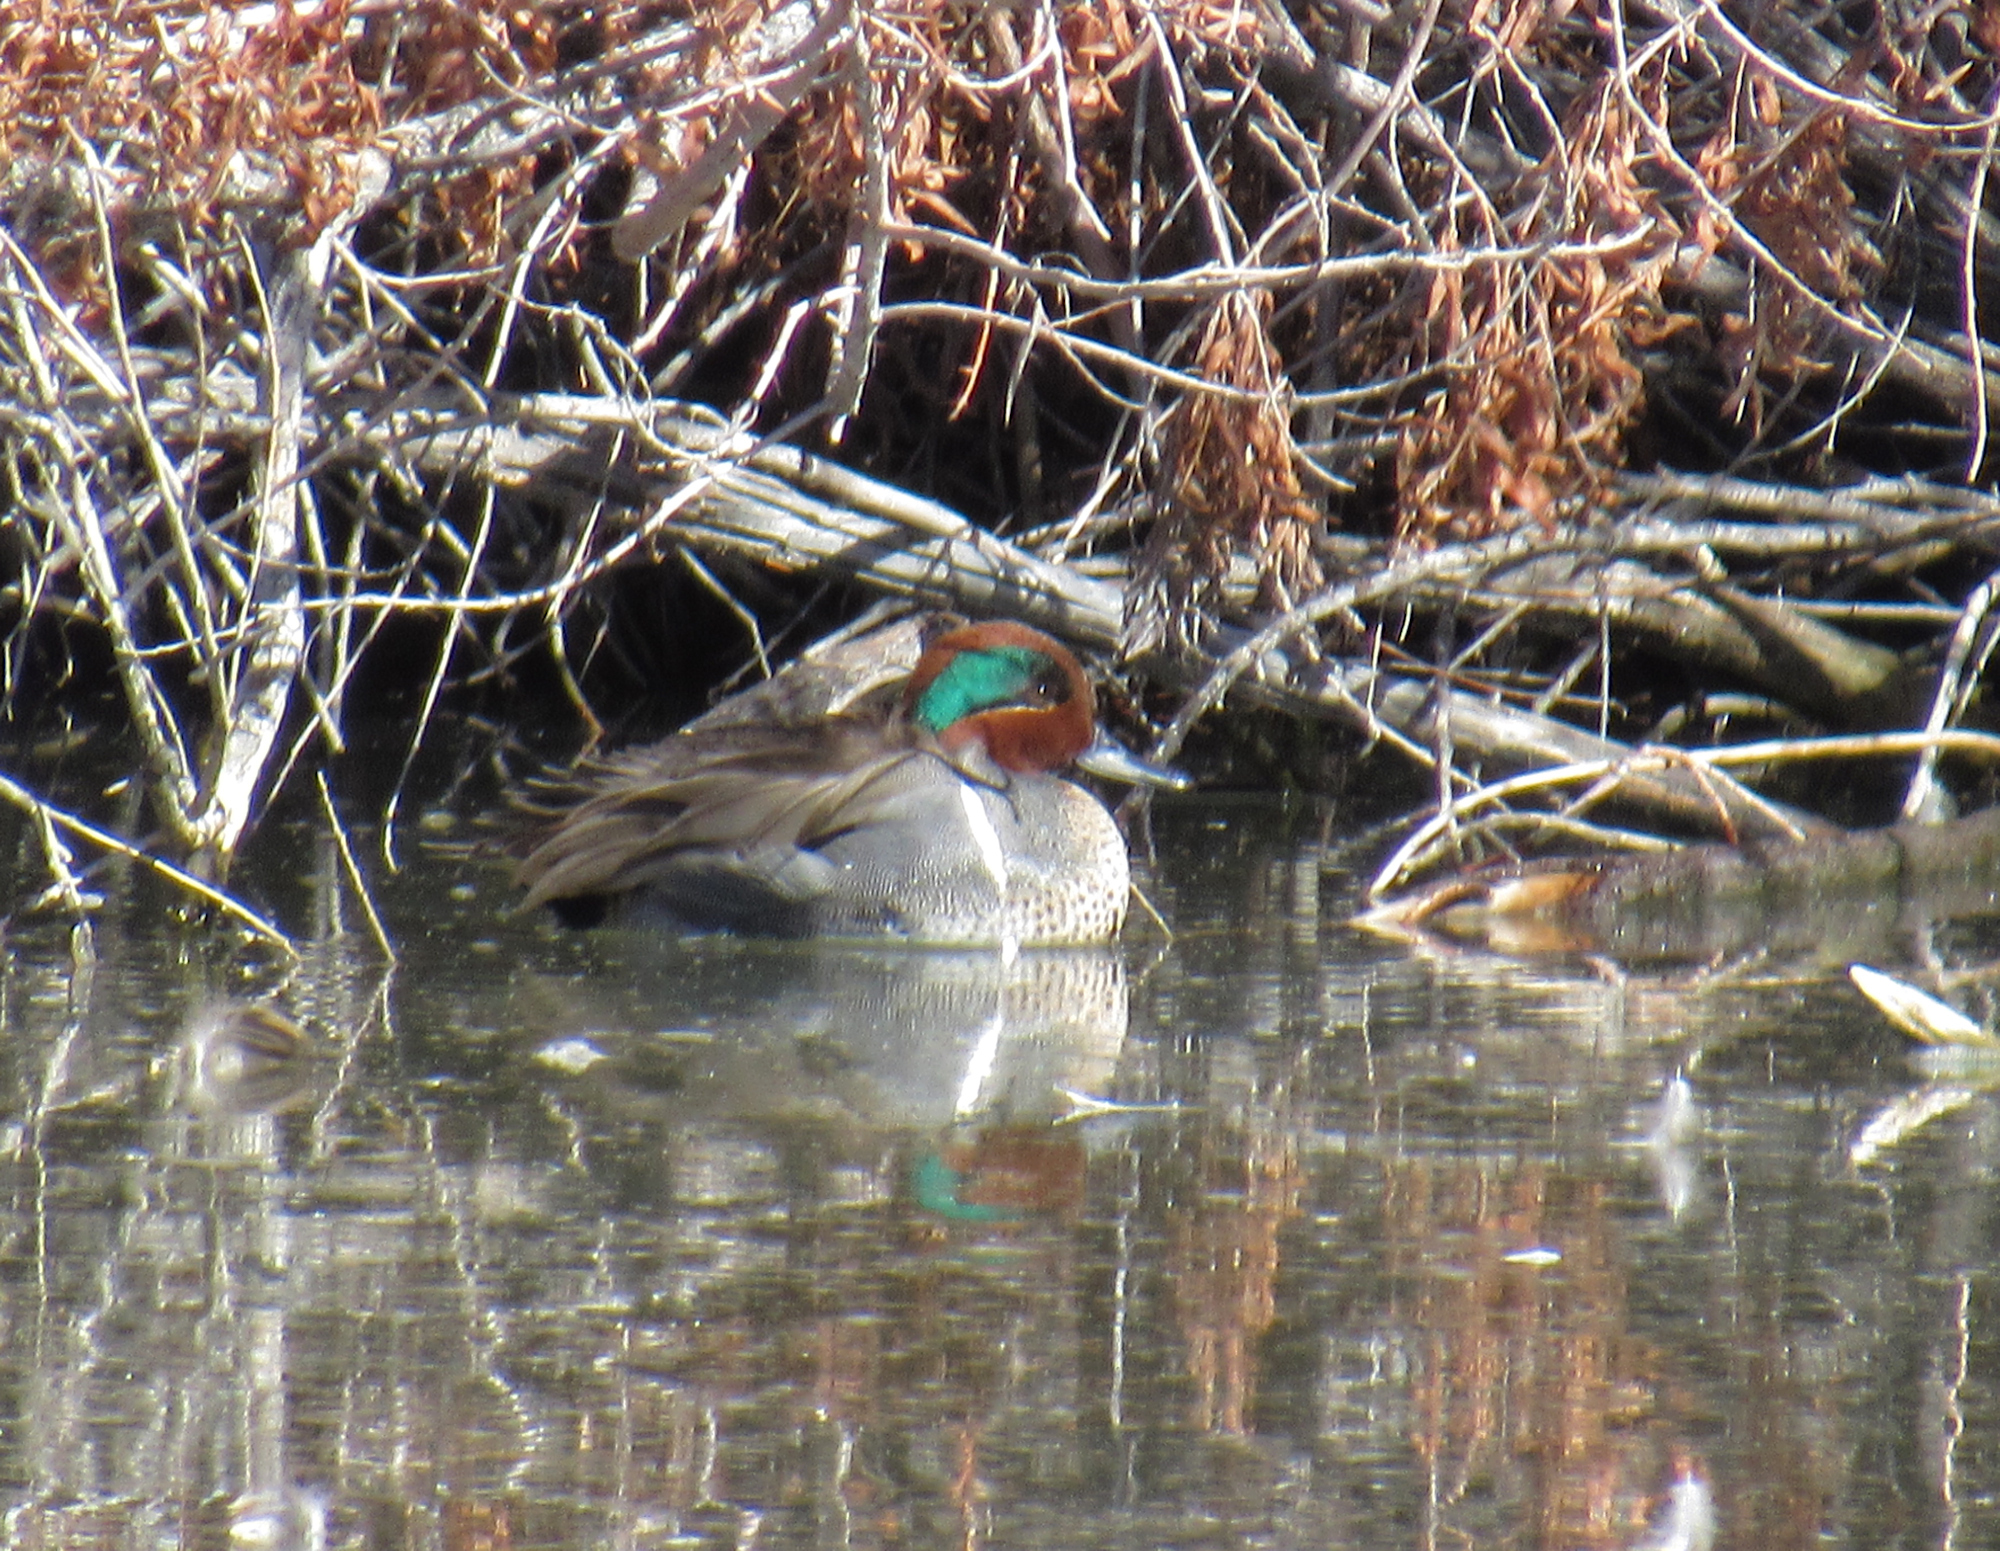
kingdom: Animalia
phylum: Chordata
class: Aves
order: Anseriformes
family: Anatidae
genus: Anas
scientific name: Anas carolinensis
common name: Green-winged teal
